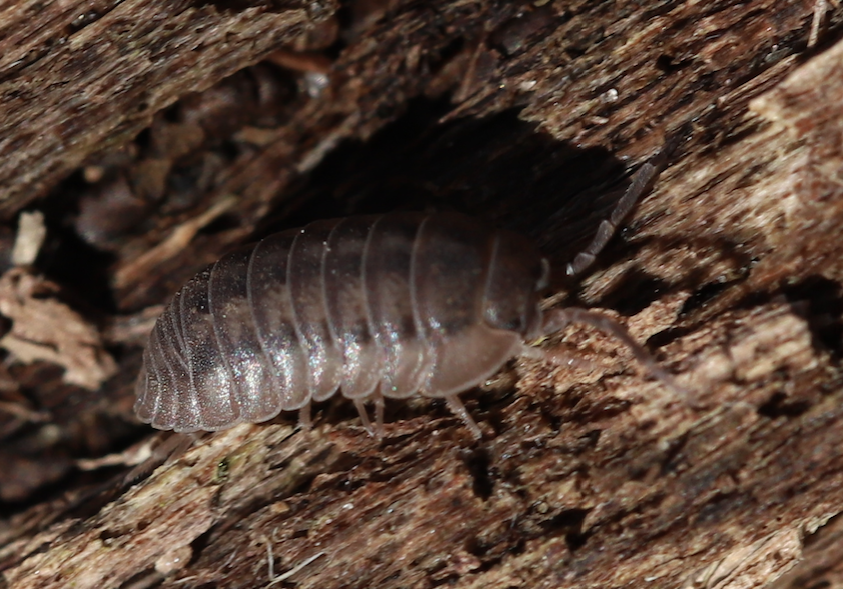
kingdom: Animalia
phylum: Arthropoda
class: Malacostraca
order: Isopoda
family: Armadillidiidae
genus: Armadillidium
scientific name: Armadillidium nasatum
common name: Isopod
